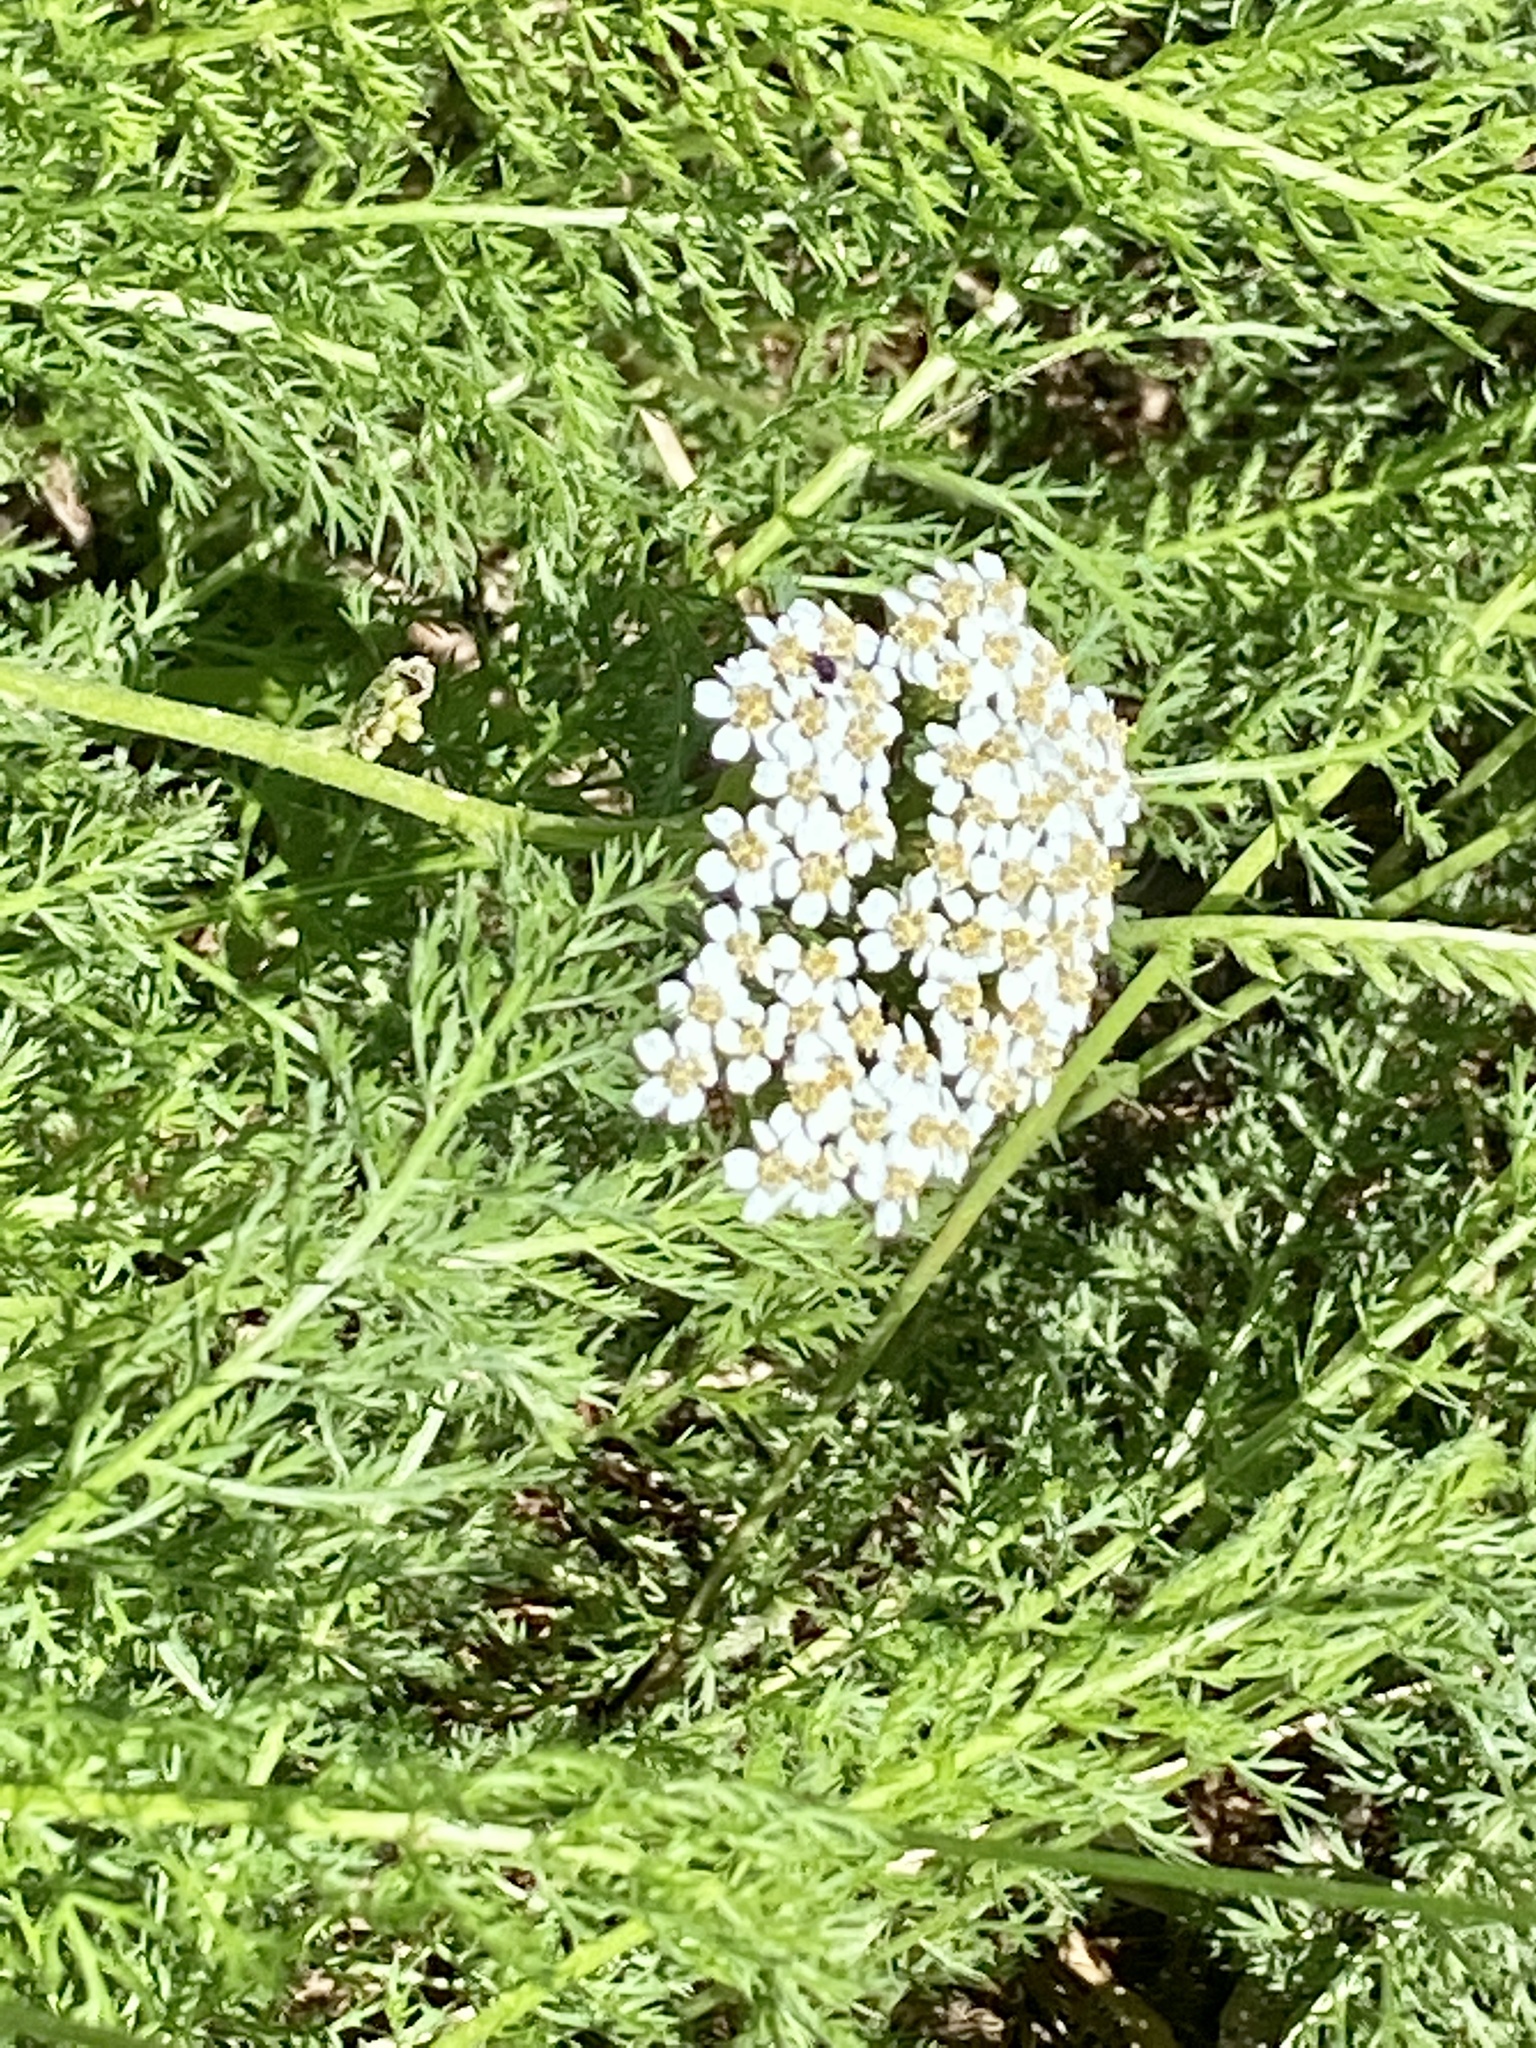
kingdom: Plantae
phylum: Tracheophyta
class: Magnoliopsida
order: Asterales
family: Asteraceae
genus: Achillea
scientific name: Achillea millefolium
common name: Yarrow
